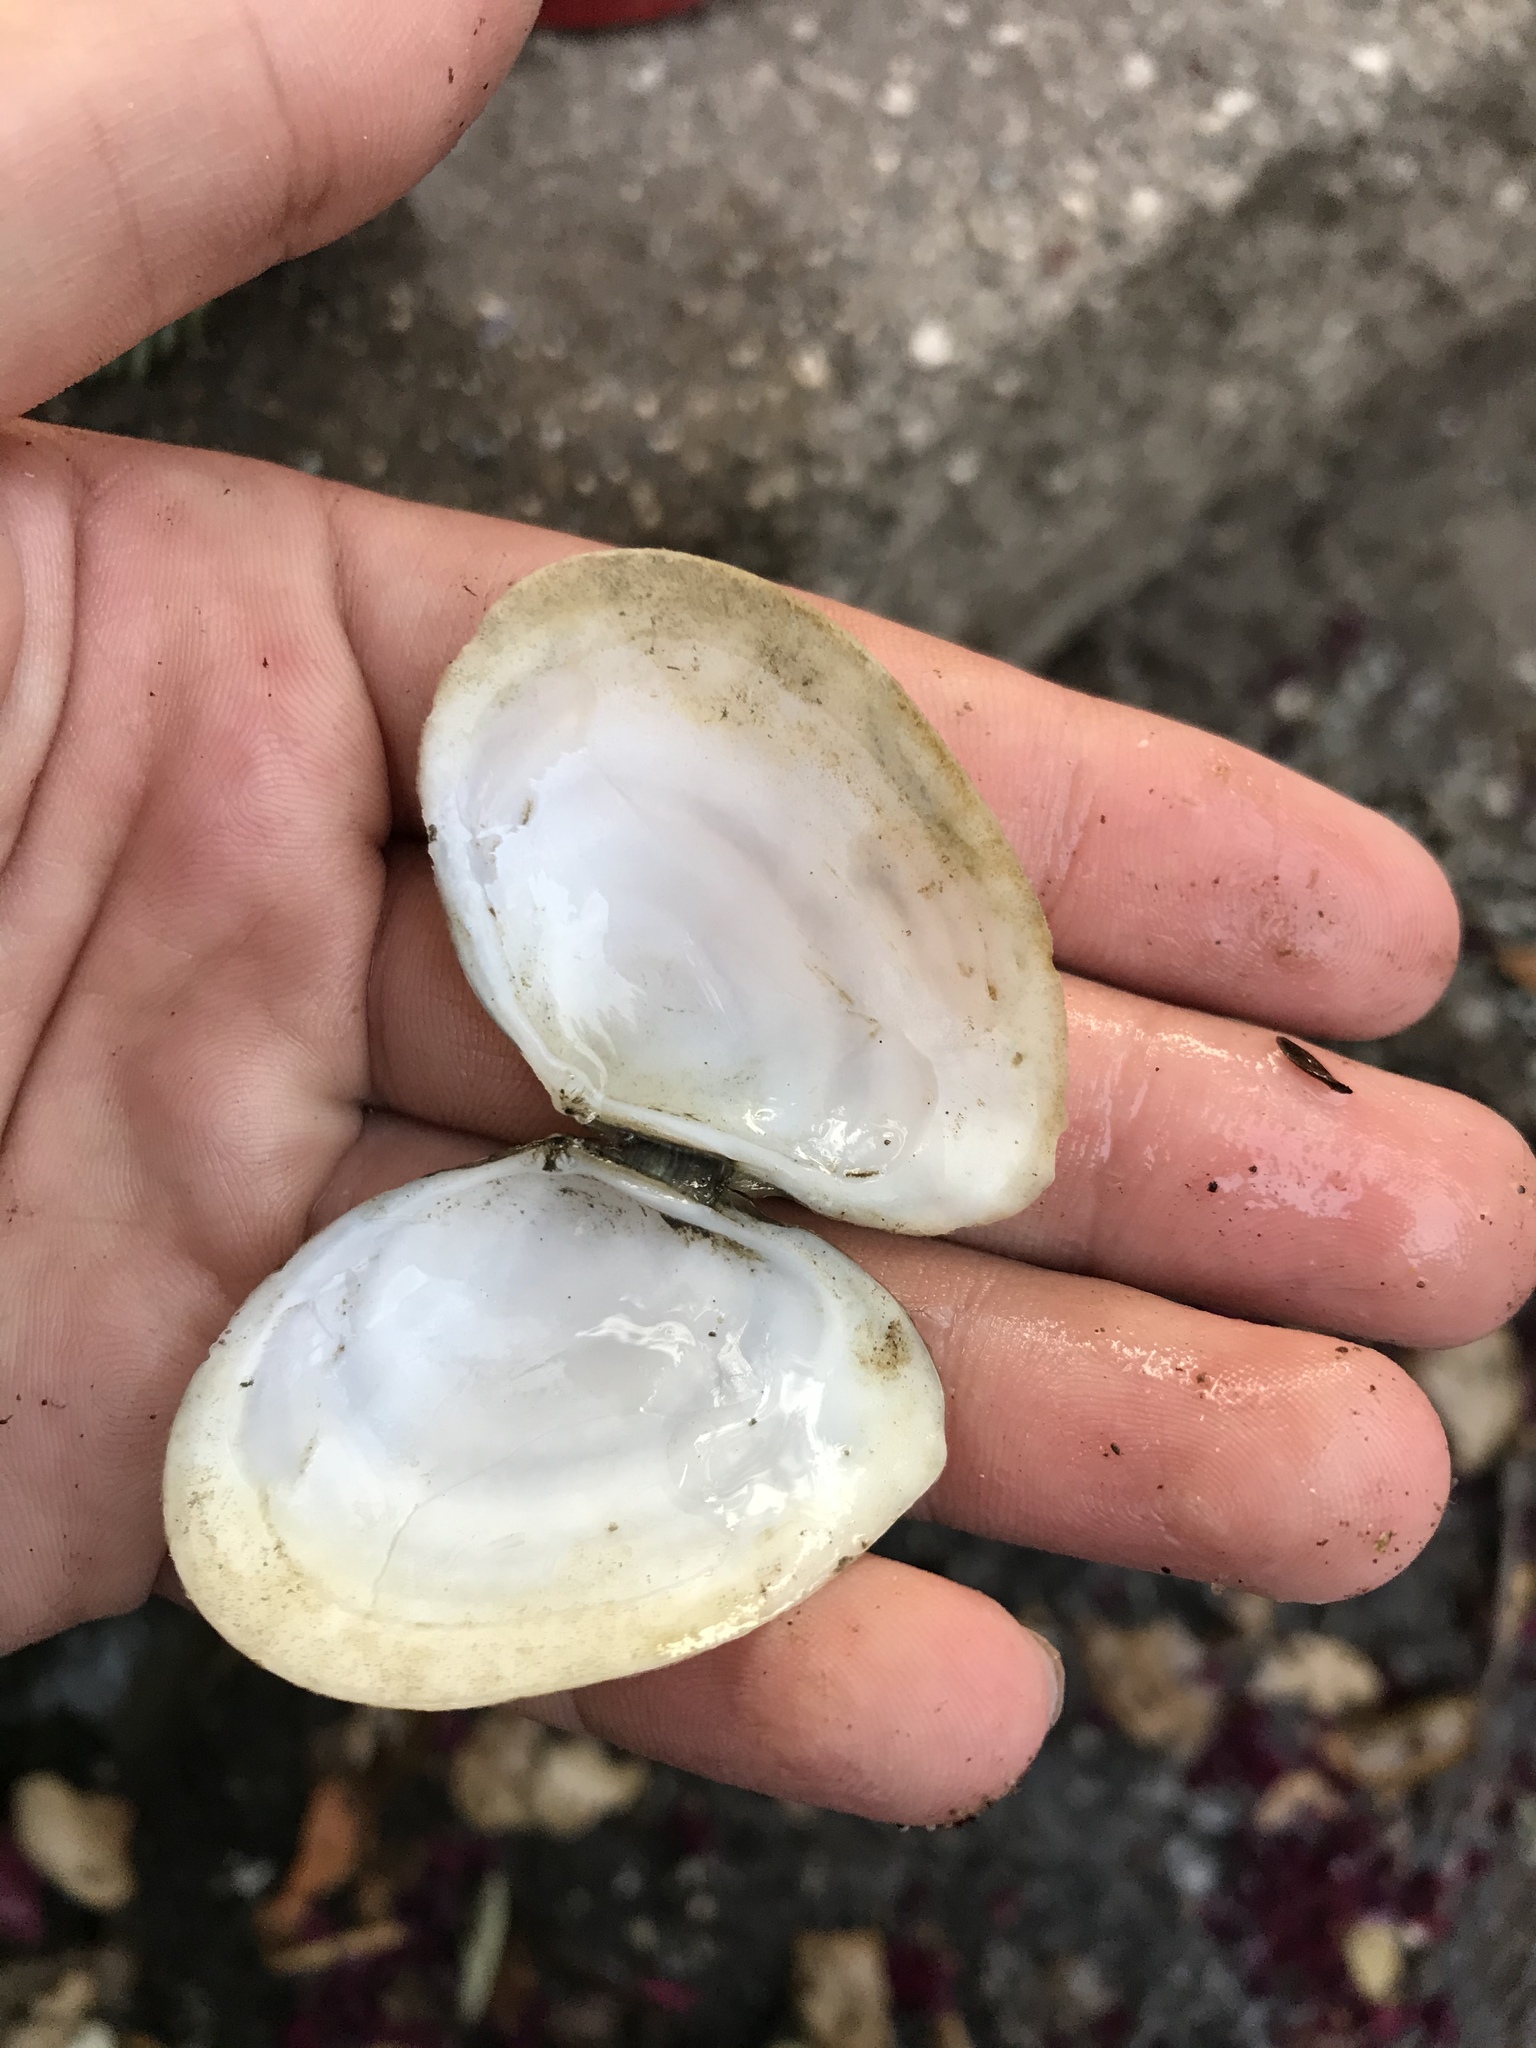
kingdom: Animalia
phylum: Mollusca
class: Bivalvia
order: Cardiida
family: Tellinidae
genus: Macoma
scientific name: Macoma nasuta
